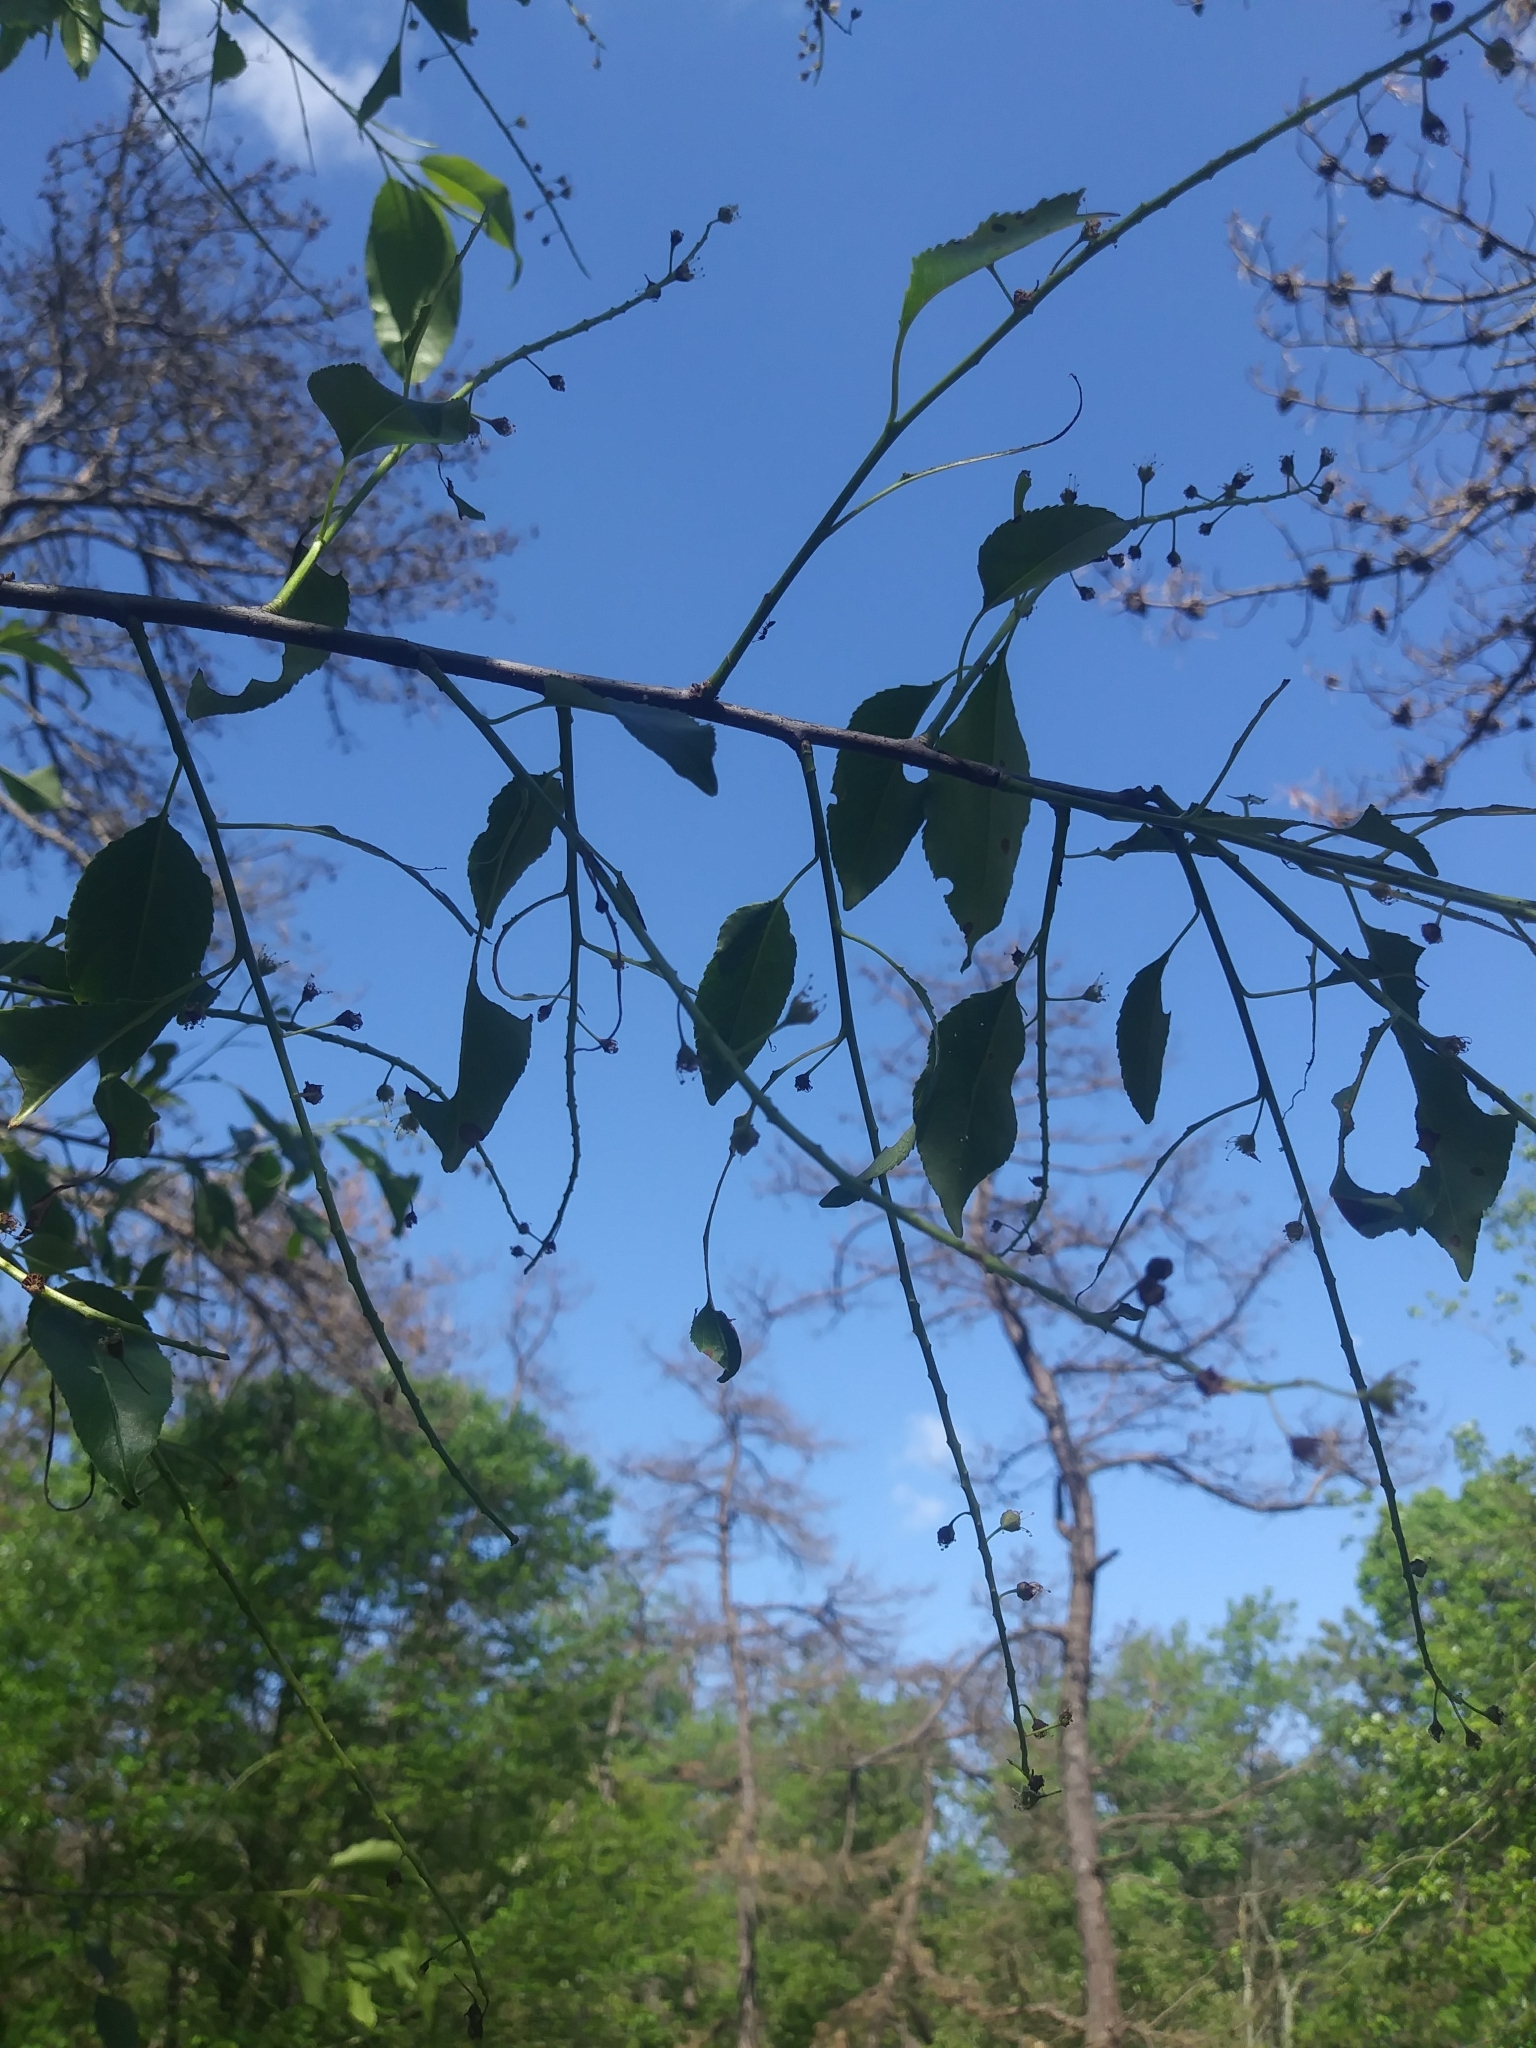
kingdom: Plantae
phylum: Tracheophyta
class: Magnoliopsida
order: Rosales
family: Rosaceae
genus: Prunus
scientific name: Prunus serotina
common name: Black cherry
